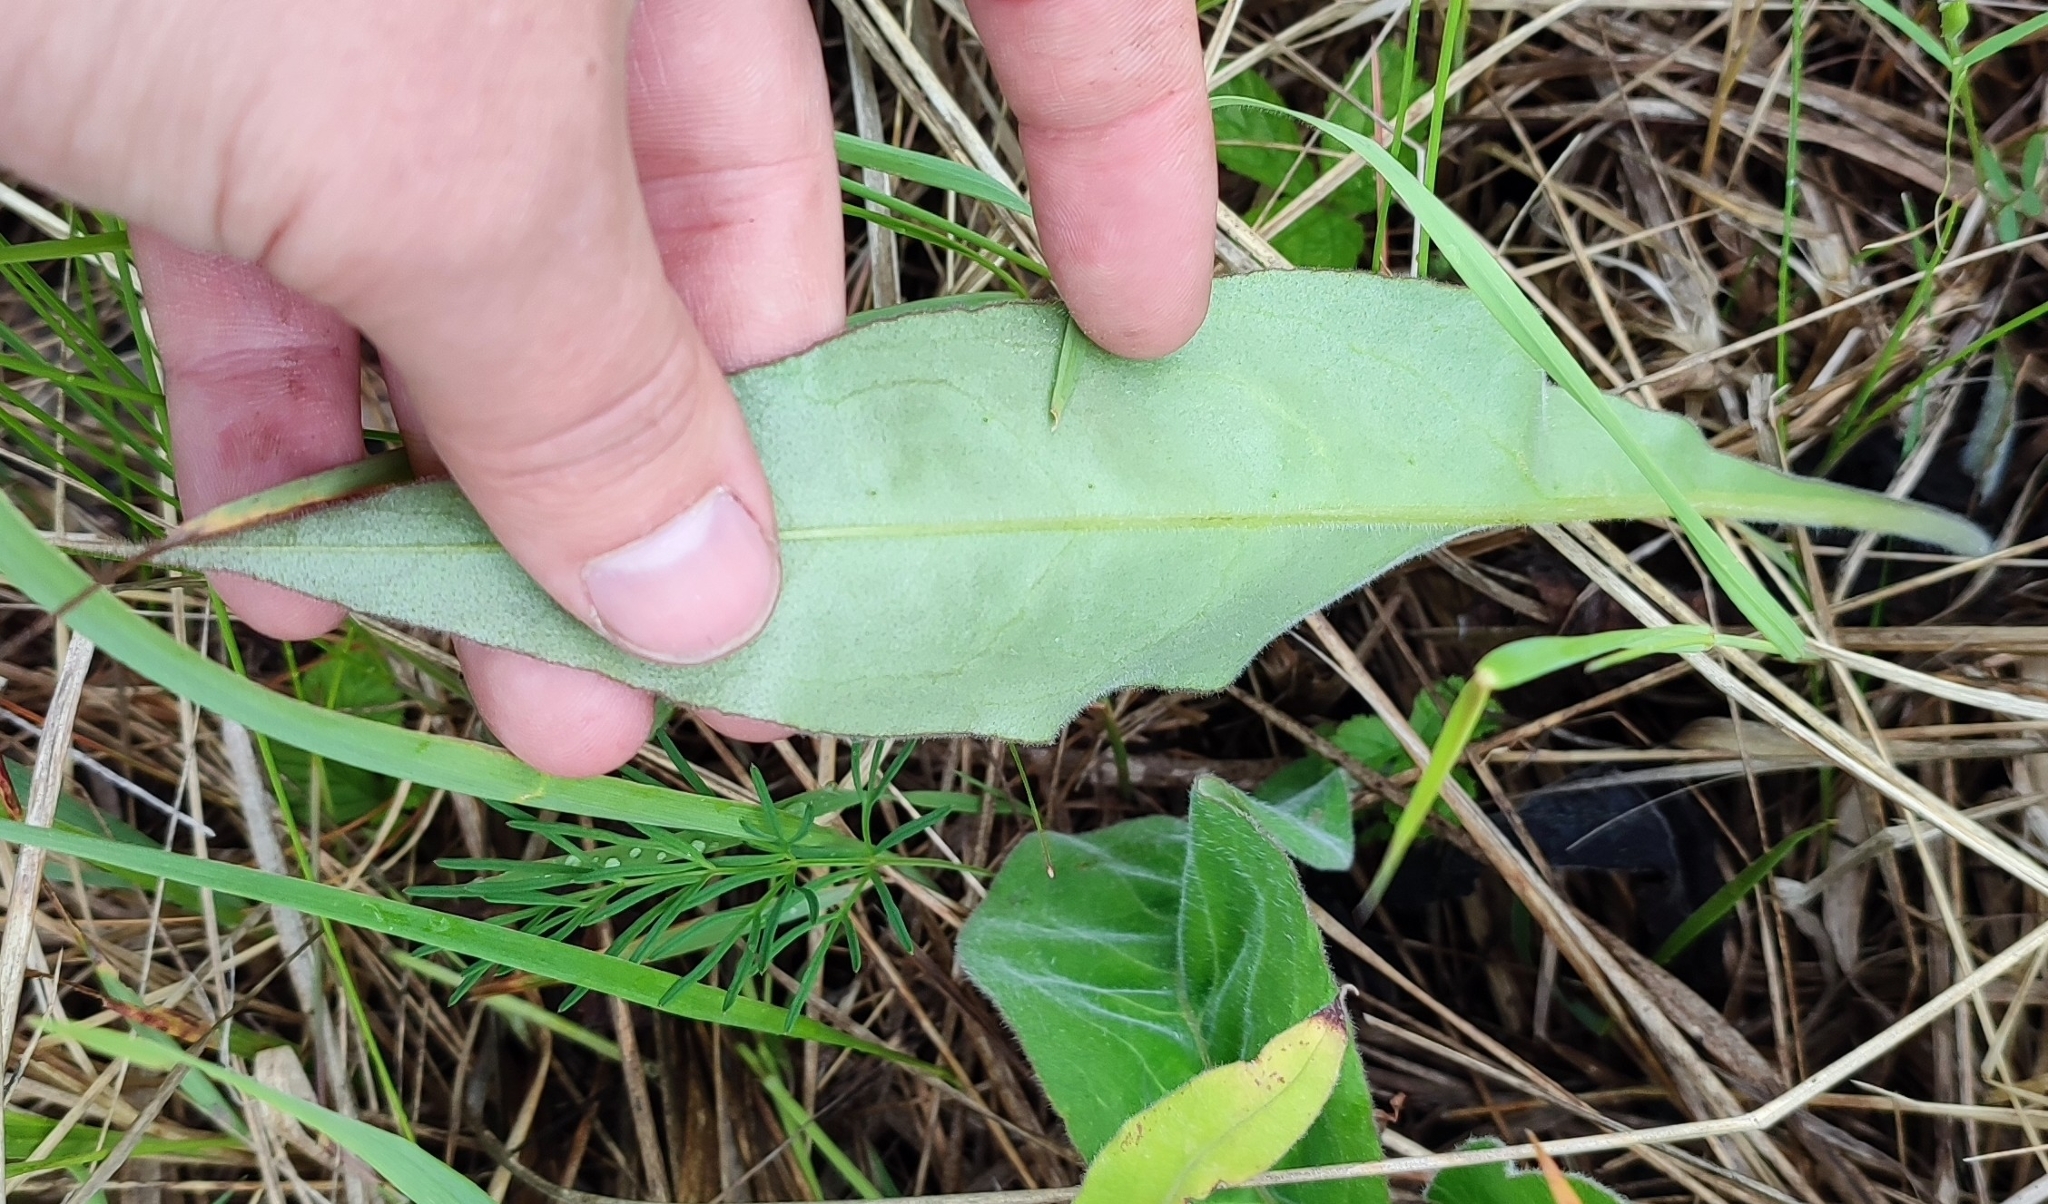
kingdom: Plantae
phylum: Tracheophyta
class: Magnoliopsida
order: Boraginales
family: Boraginaceae
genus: Pulmonaria
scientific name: Pulmonaria mollis
